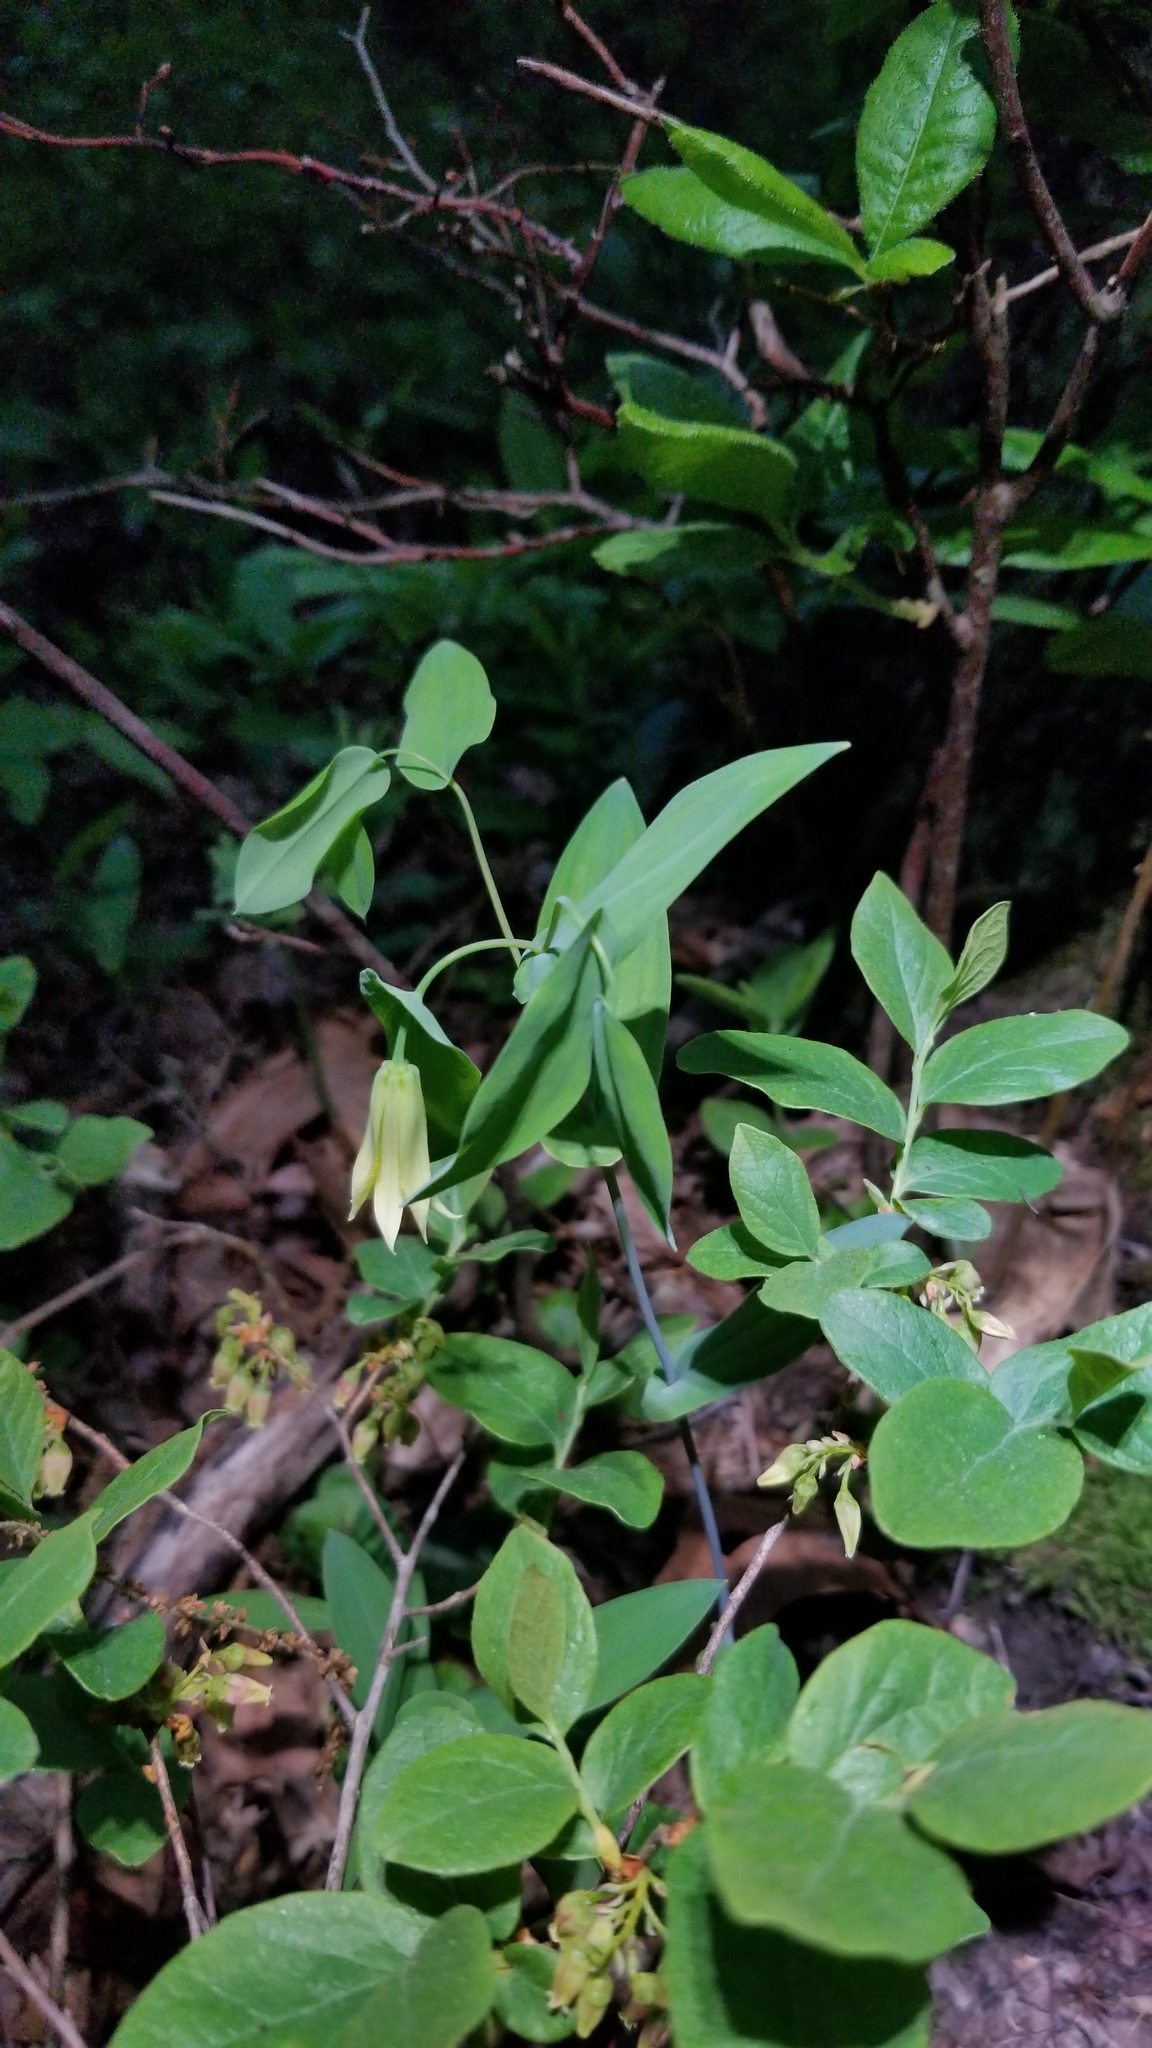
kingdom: Plantae
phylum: Tracheophyta
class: Liliopsida
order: Liliales
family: Colchicaceae
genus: Uvularia
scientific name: Uvularia perfoliata
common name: Perfoliate bellwort
